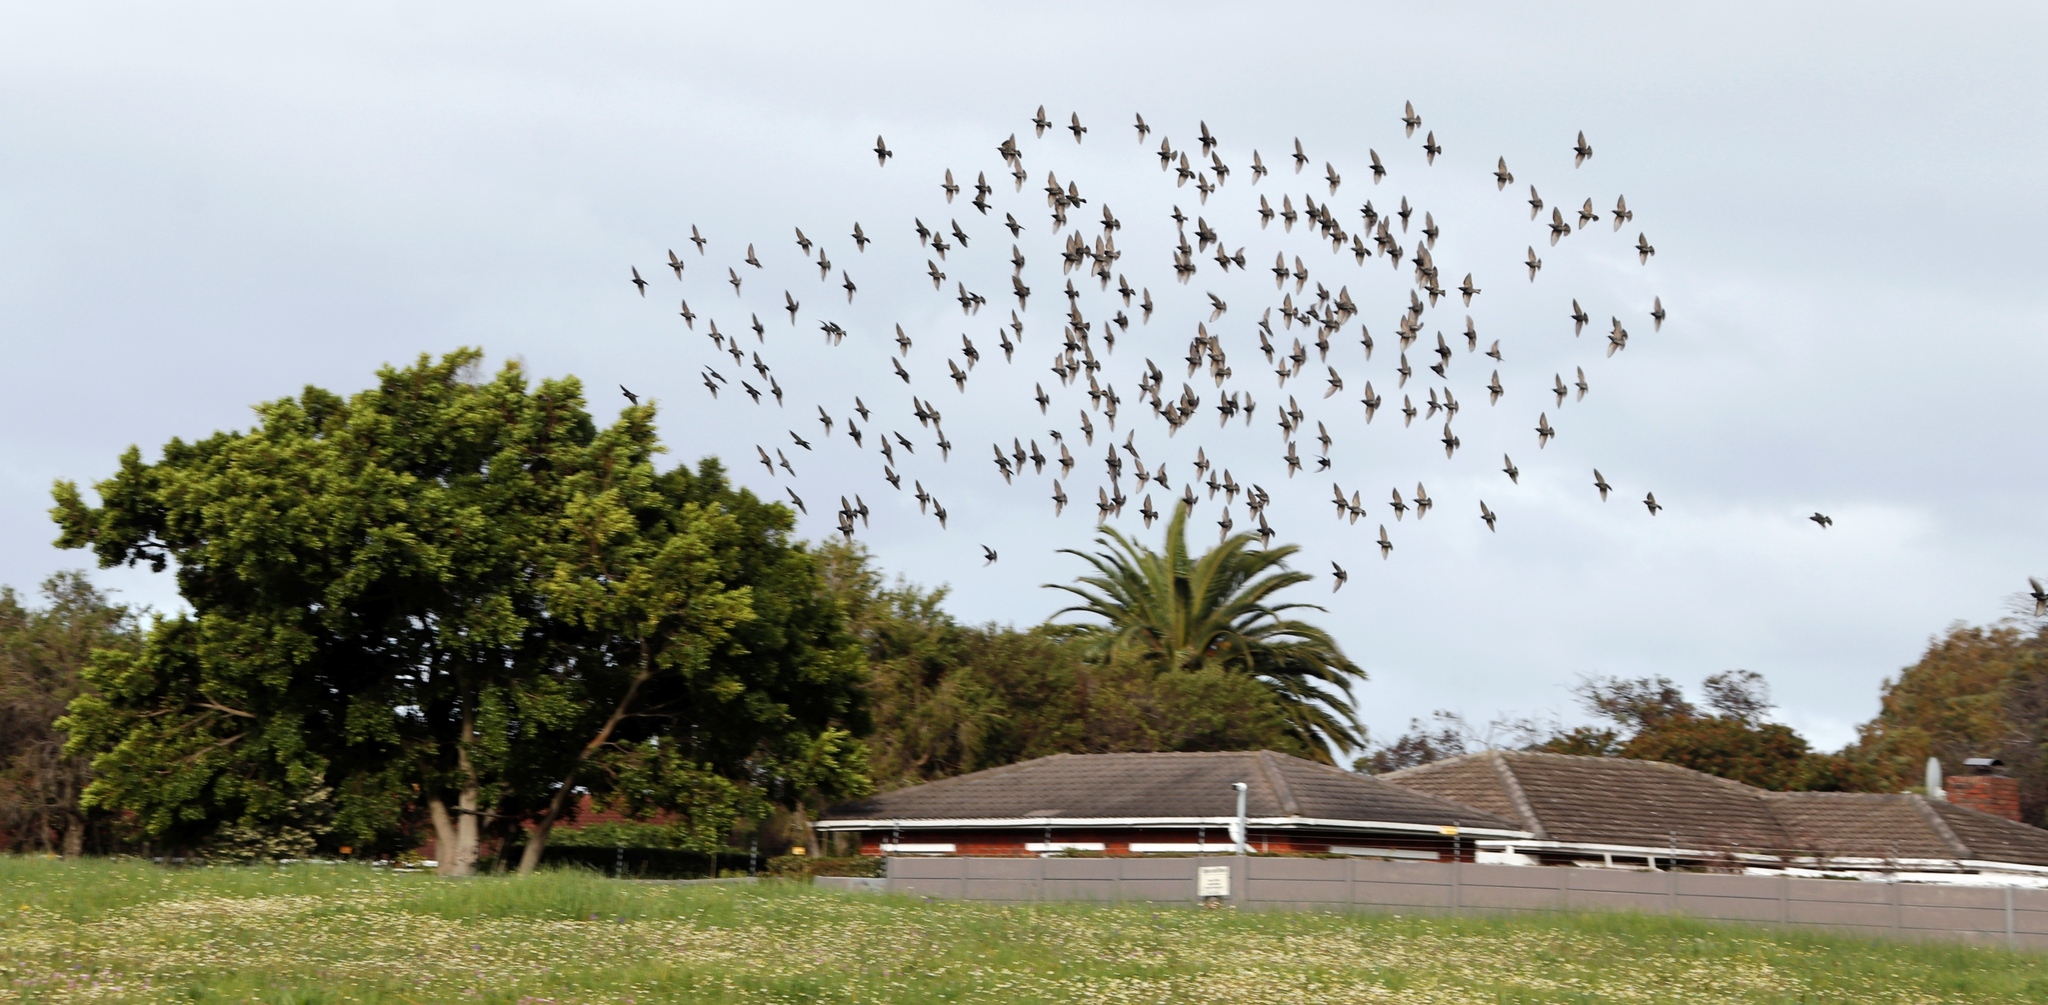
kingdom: Animalia
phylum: Chordata
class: Aves
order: Passeriformes
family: Sturnidae
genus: Sturnus
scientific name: Sturnus vulgaris
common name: Common starling
